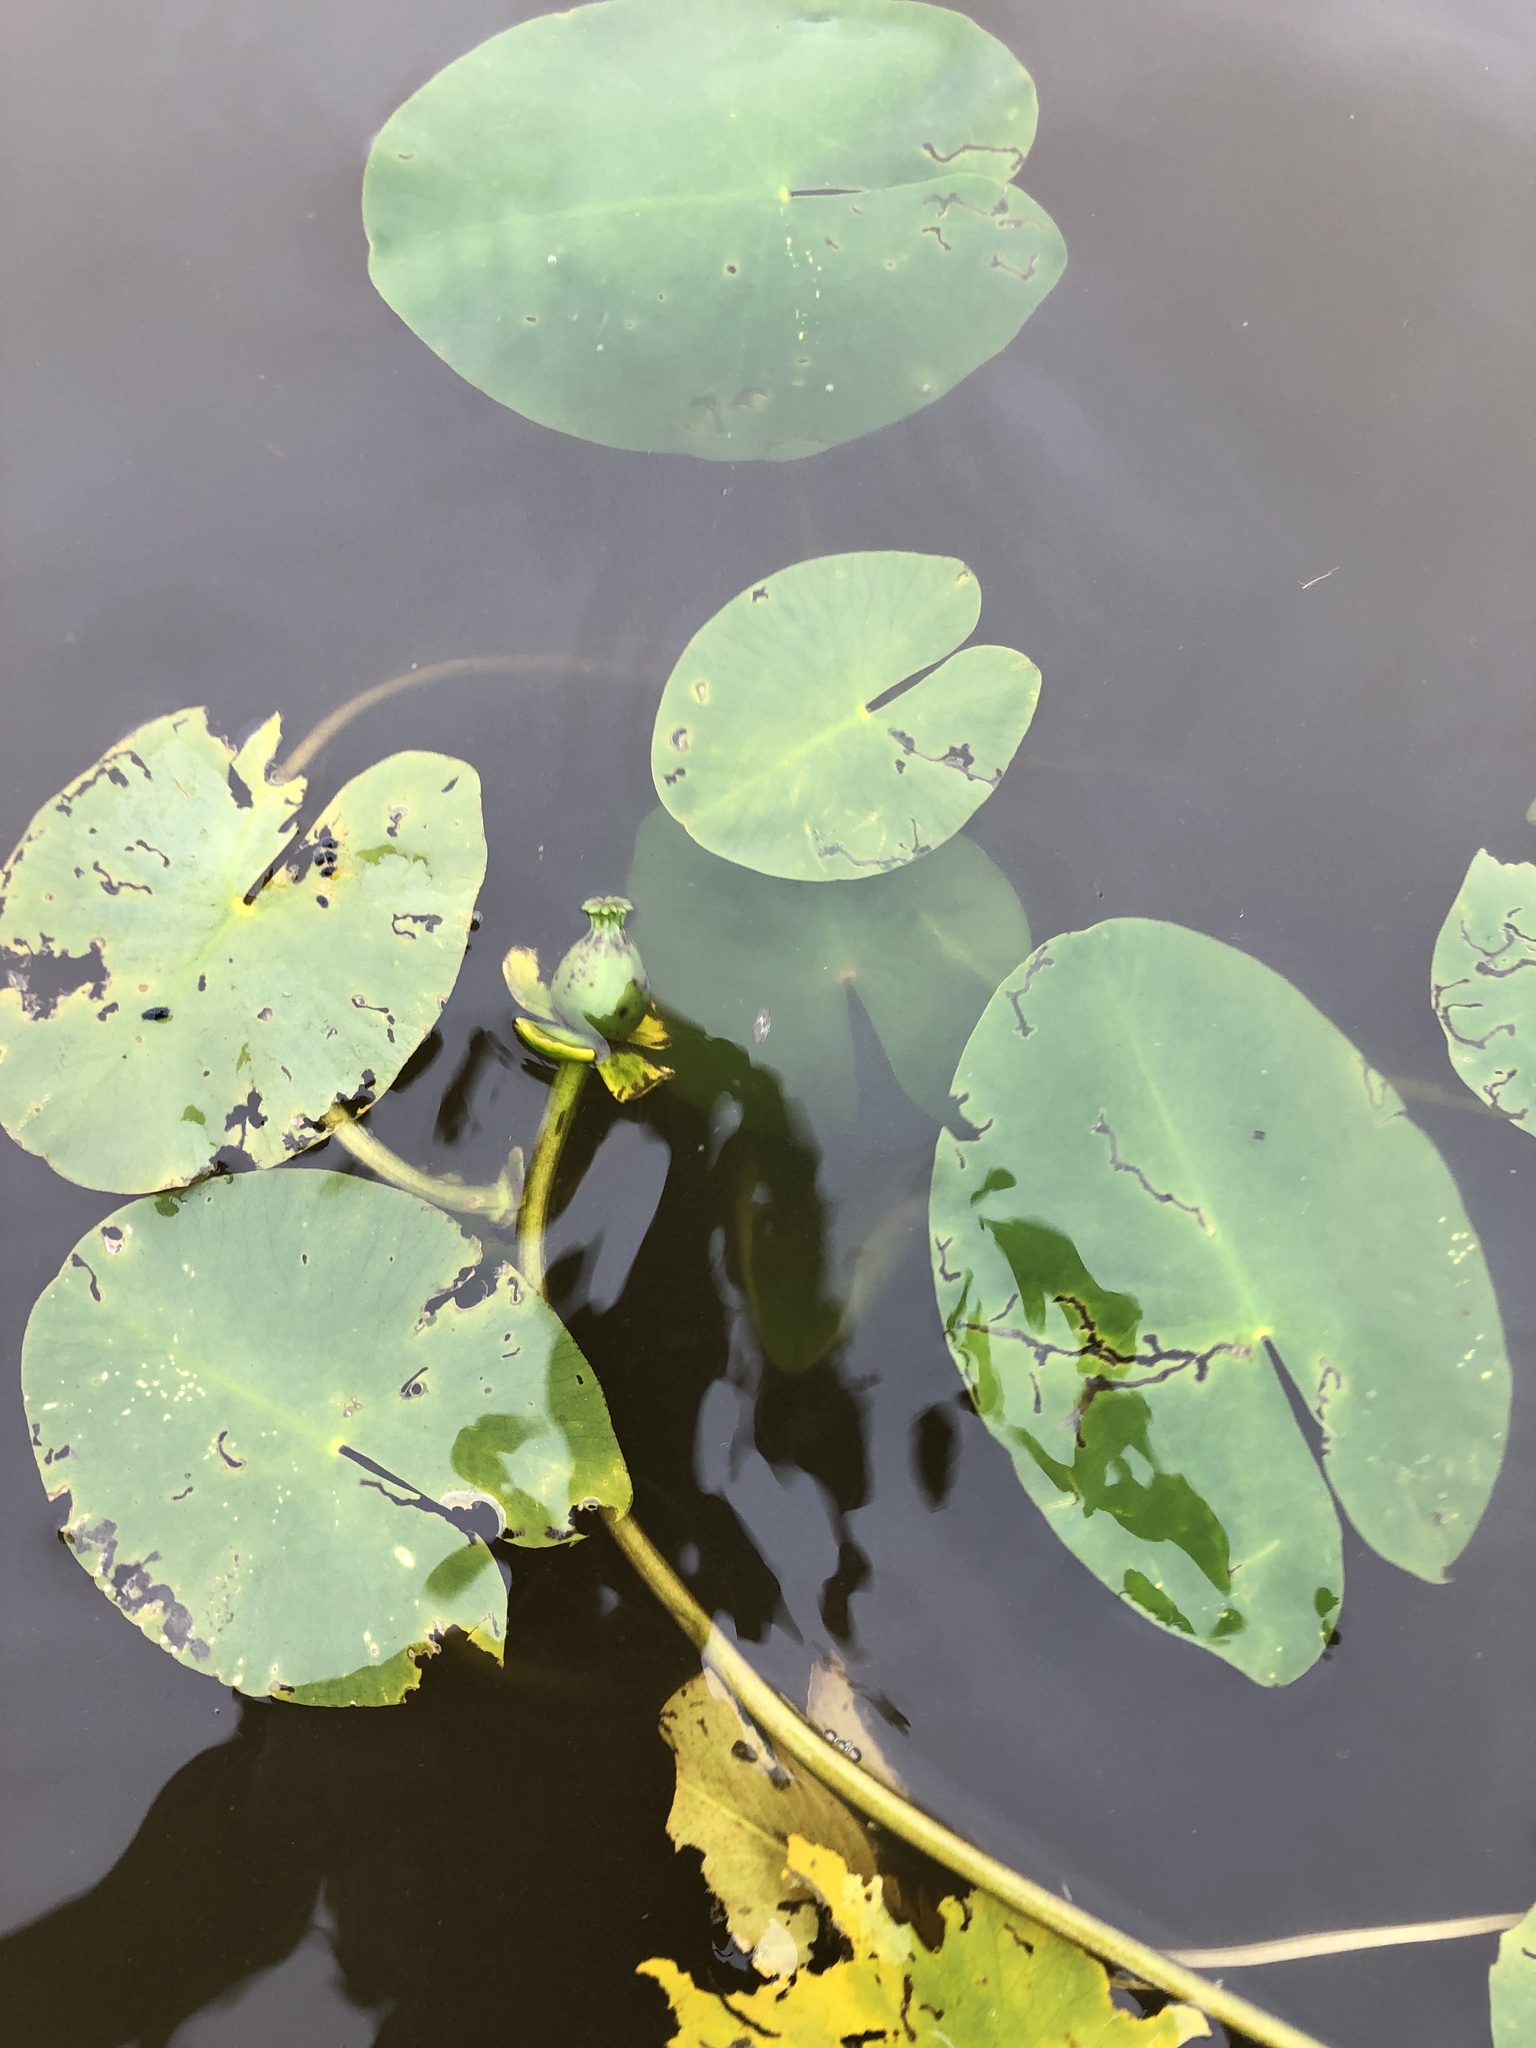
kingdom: Plantae
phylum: Tracheophyta
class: Magnoliopsida
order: Nymphaeales
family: Nymphaeaceae
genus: Nuphar
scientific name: Nuphar pumila
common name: Least water-lily
